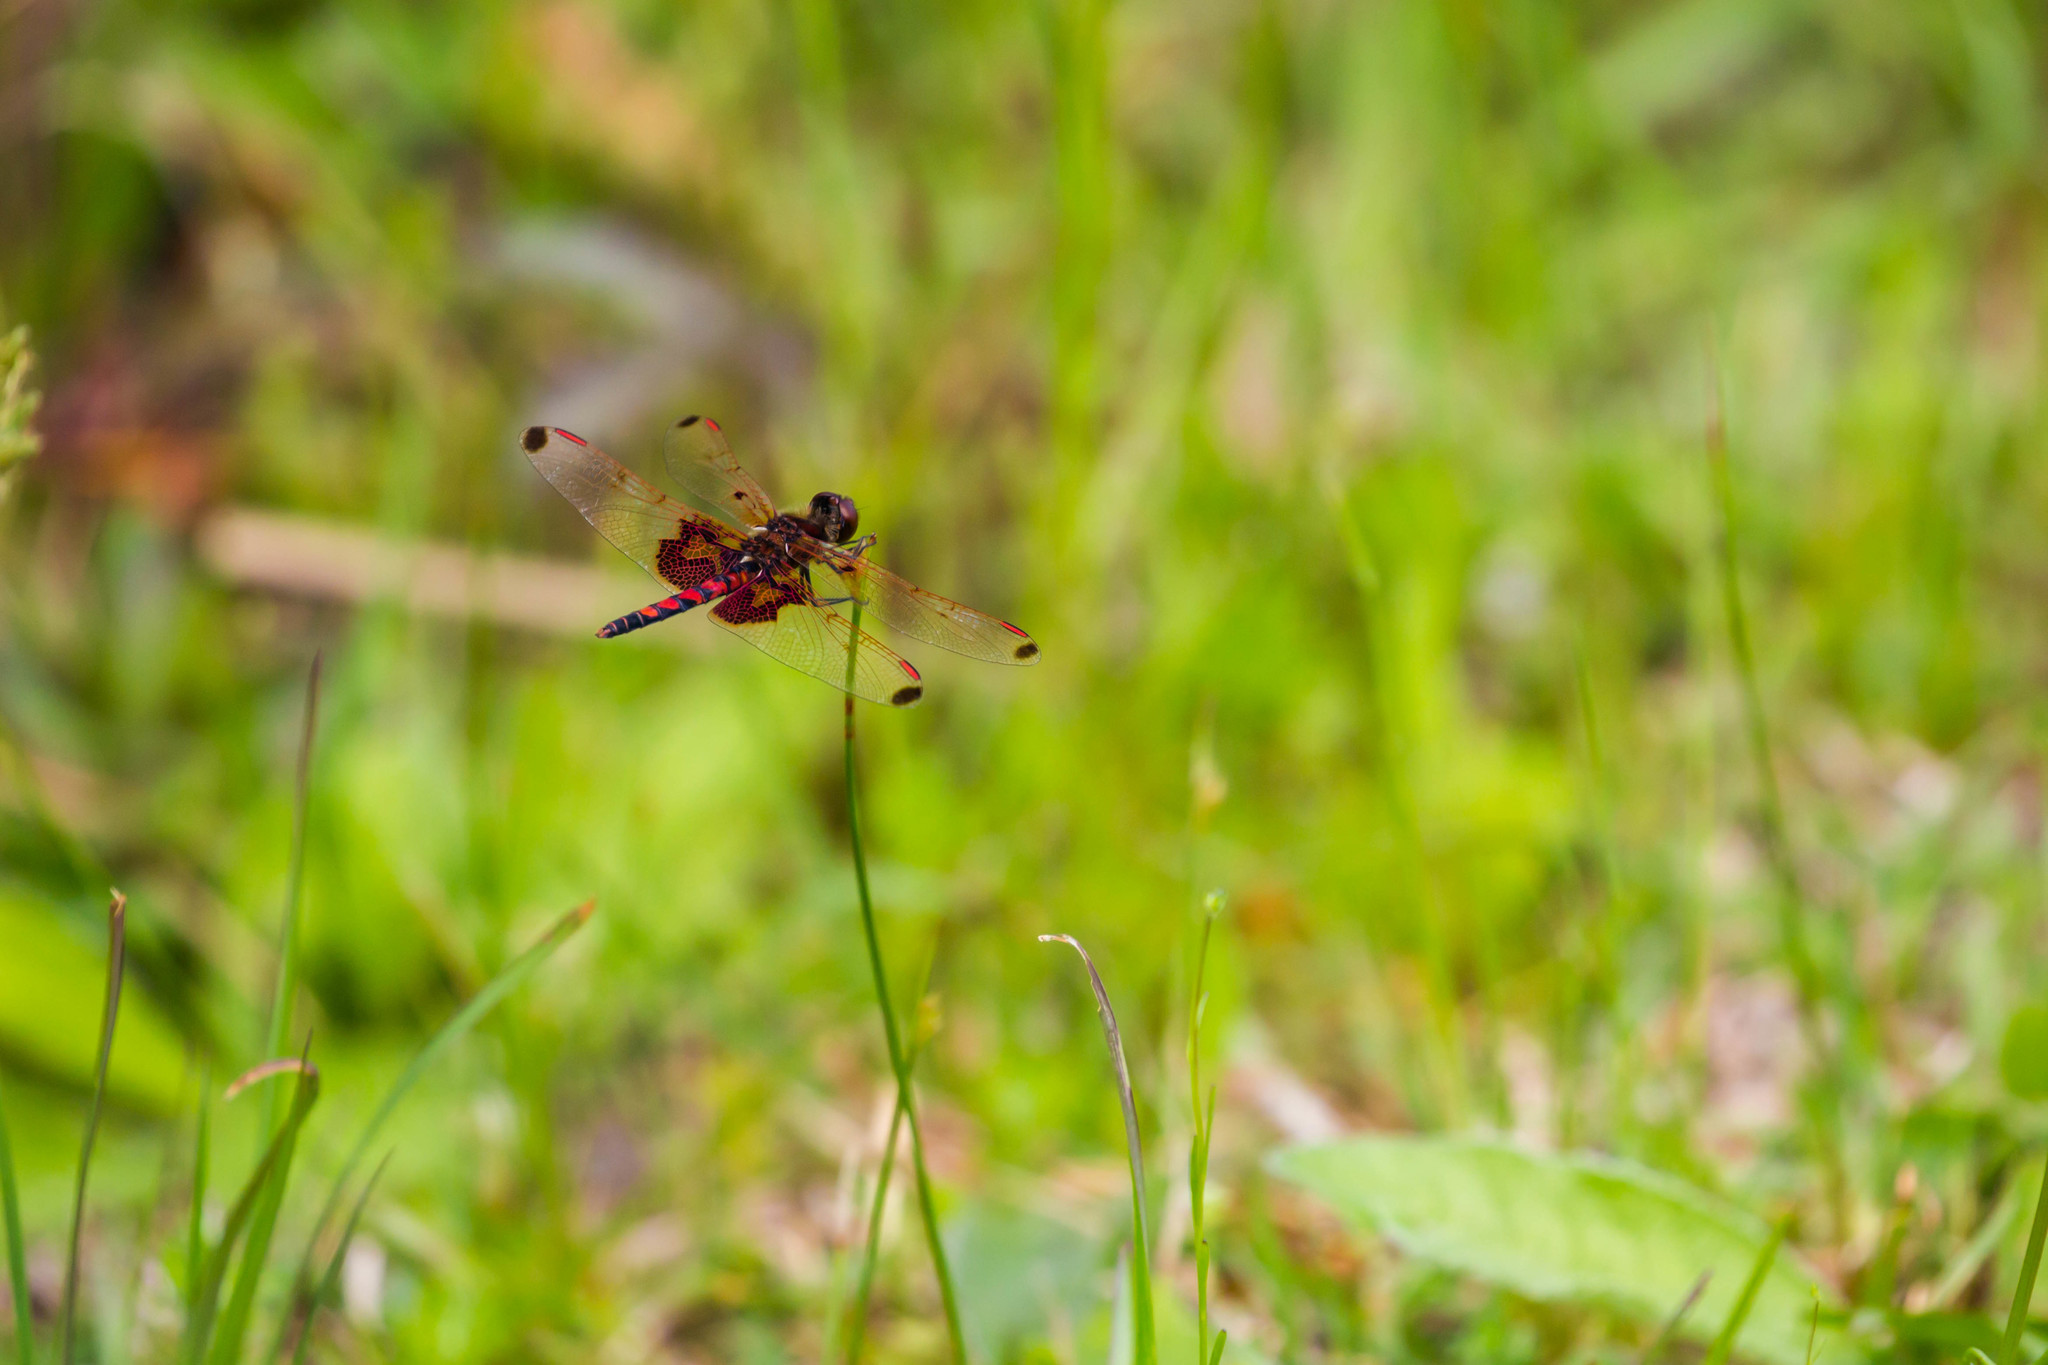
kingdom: Animalia
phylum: Arthropoda
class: Insecta
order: Odonata
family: Libellulidae
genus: Celithemis
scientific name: Celithemis elisa
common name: Calico pennant
